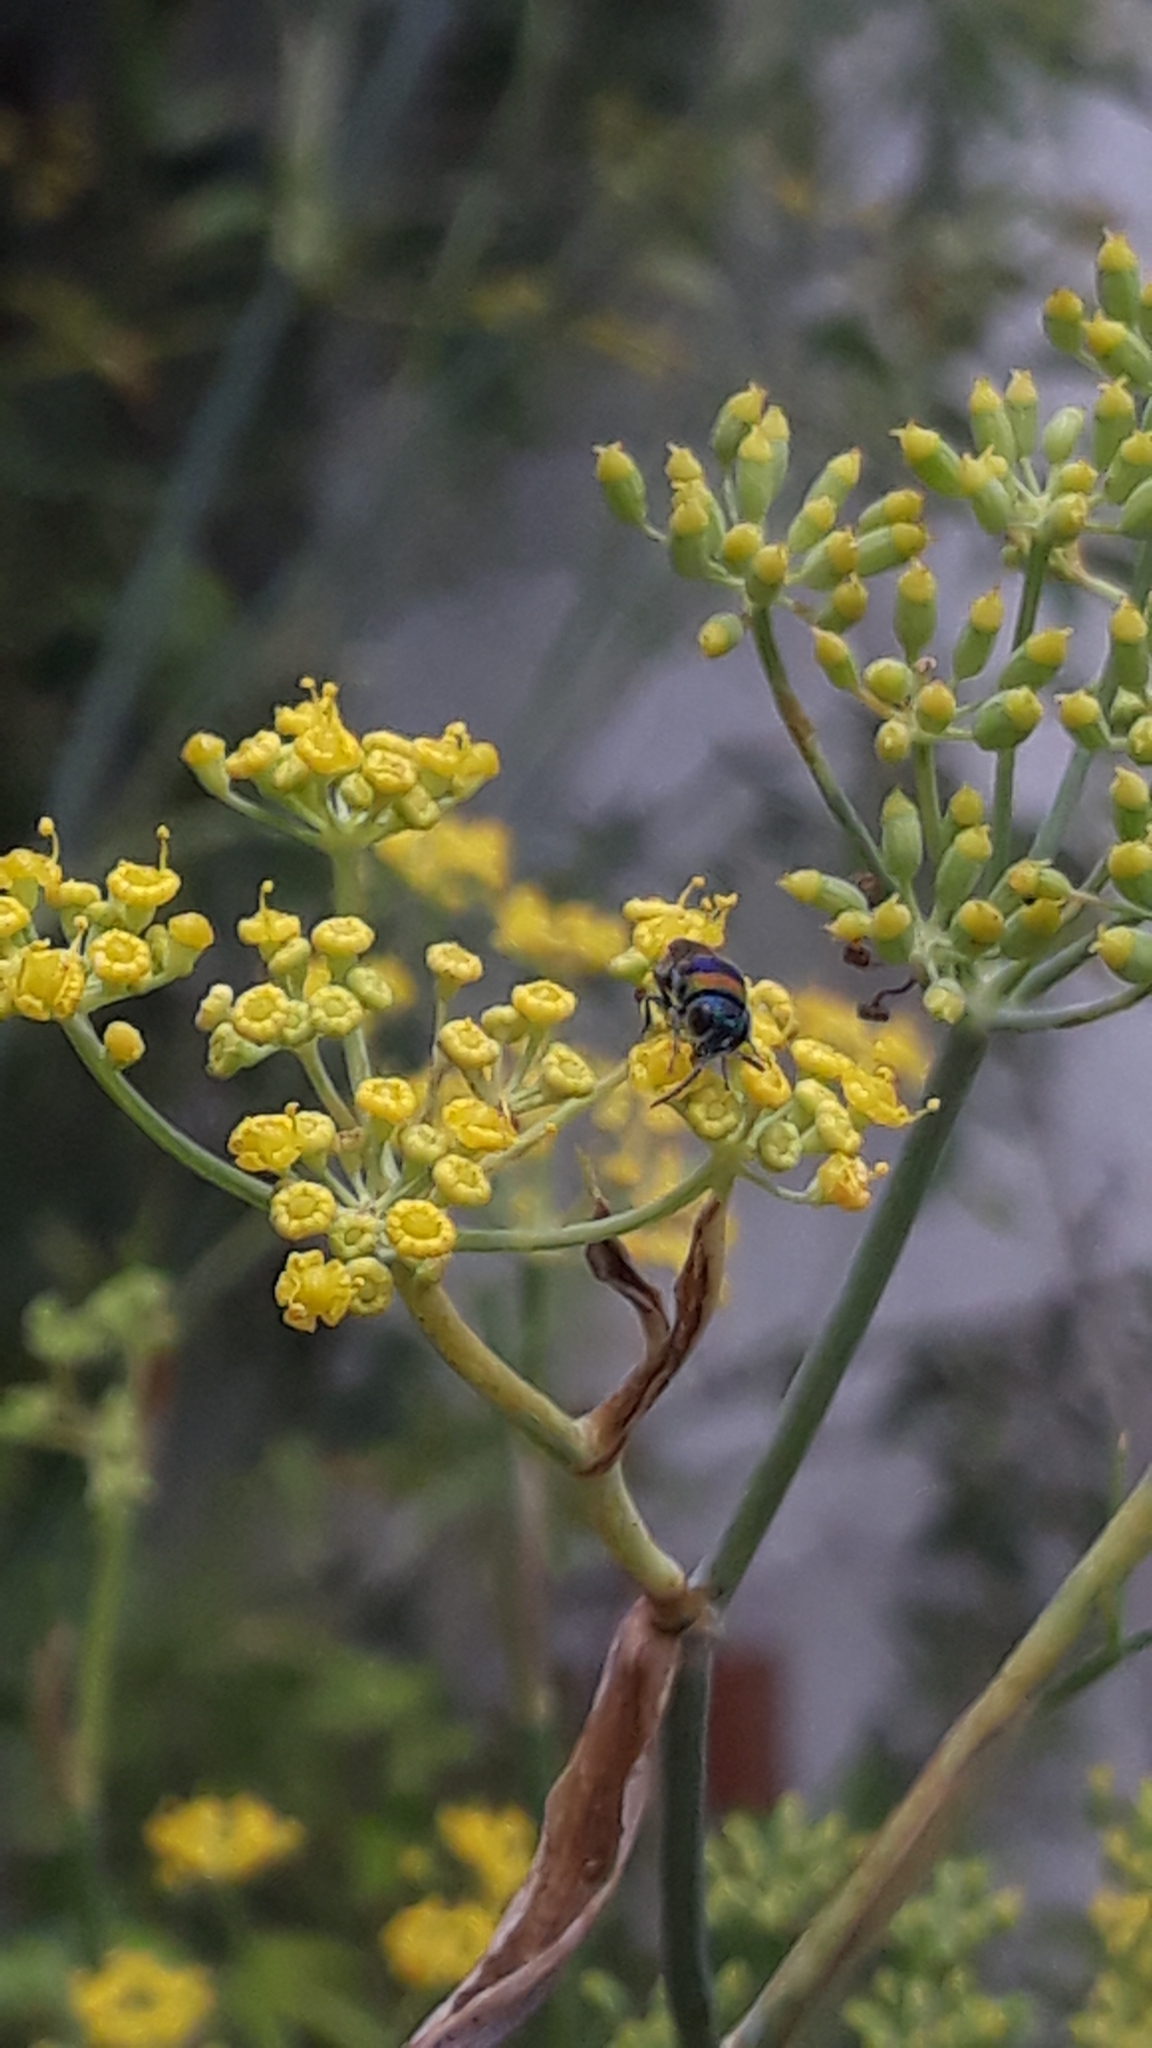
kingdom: Animalia
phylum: Arthropoda
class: Insecta
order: Hymenoptera
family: Chrysididae
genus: Chrysis
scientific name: Chrysis semicincta
